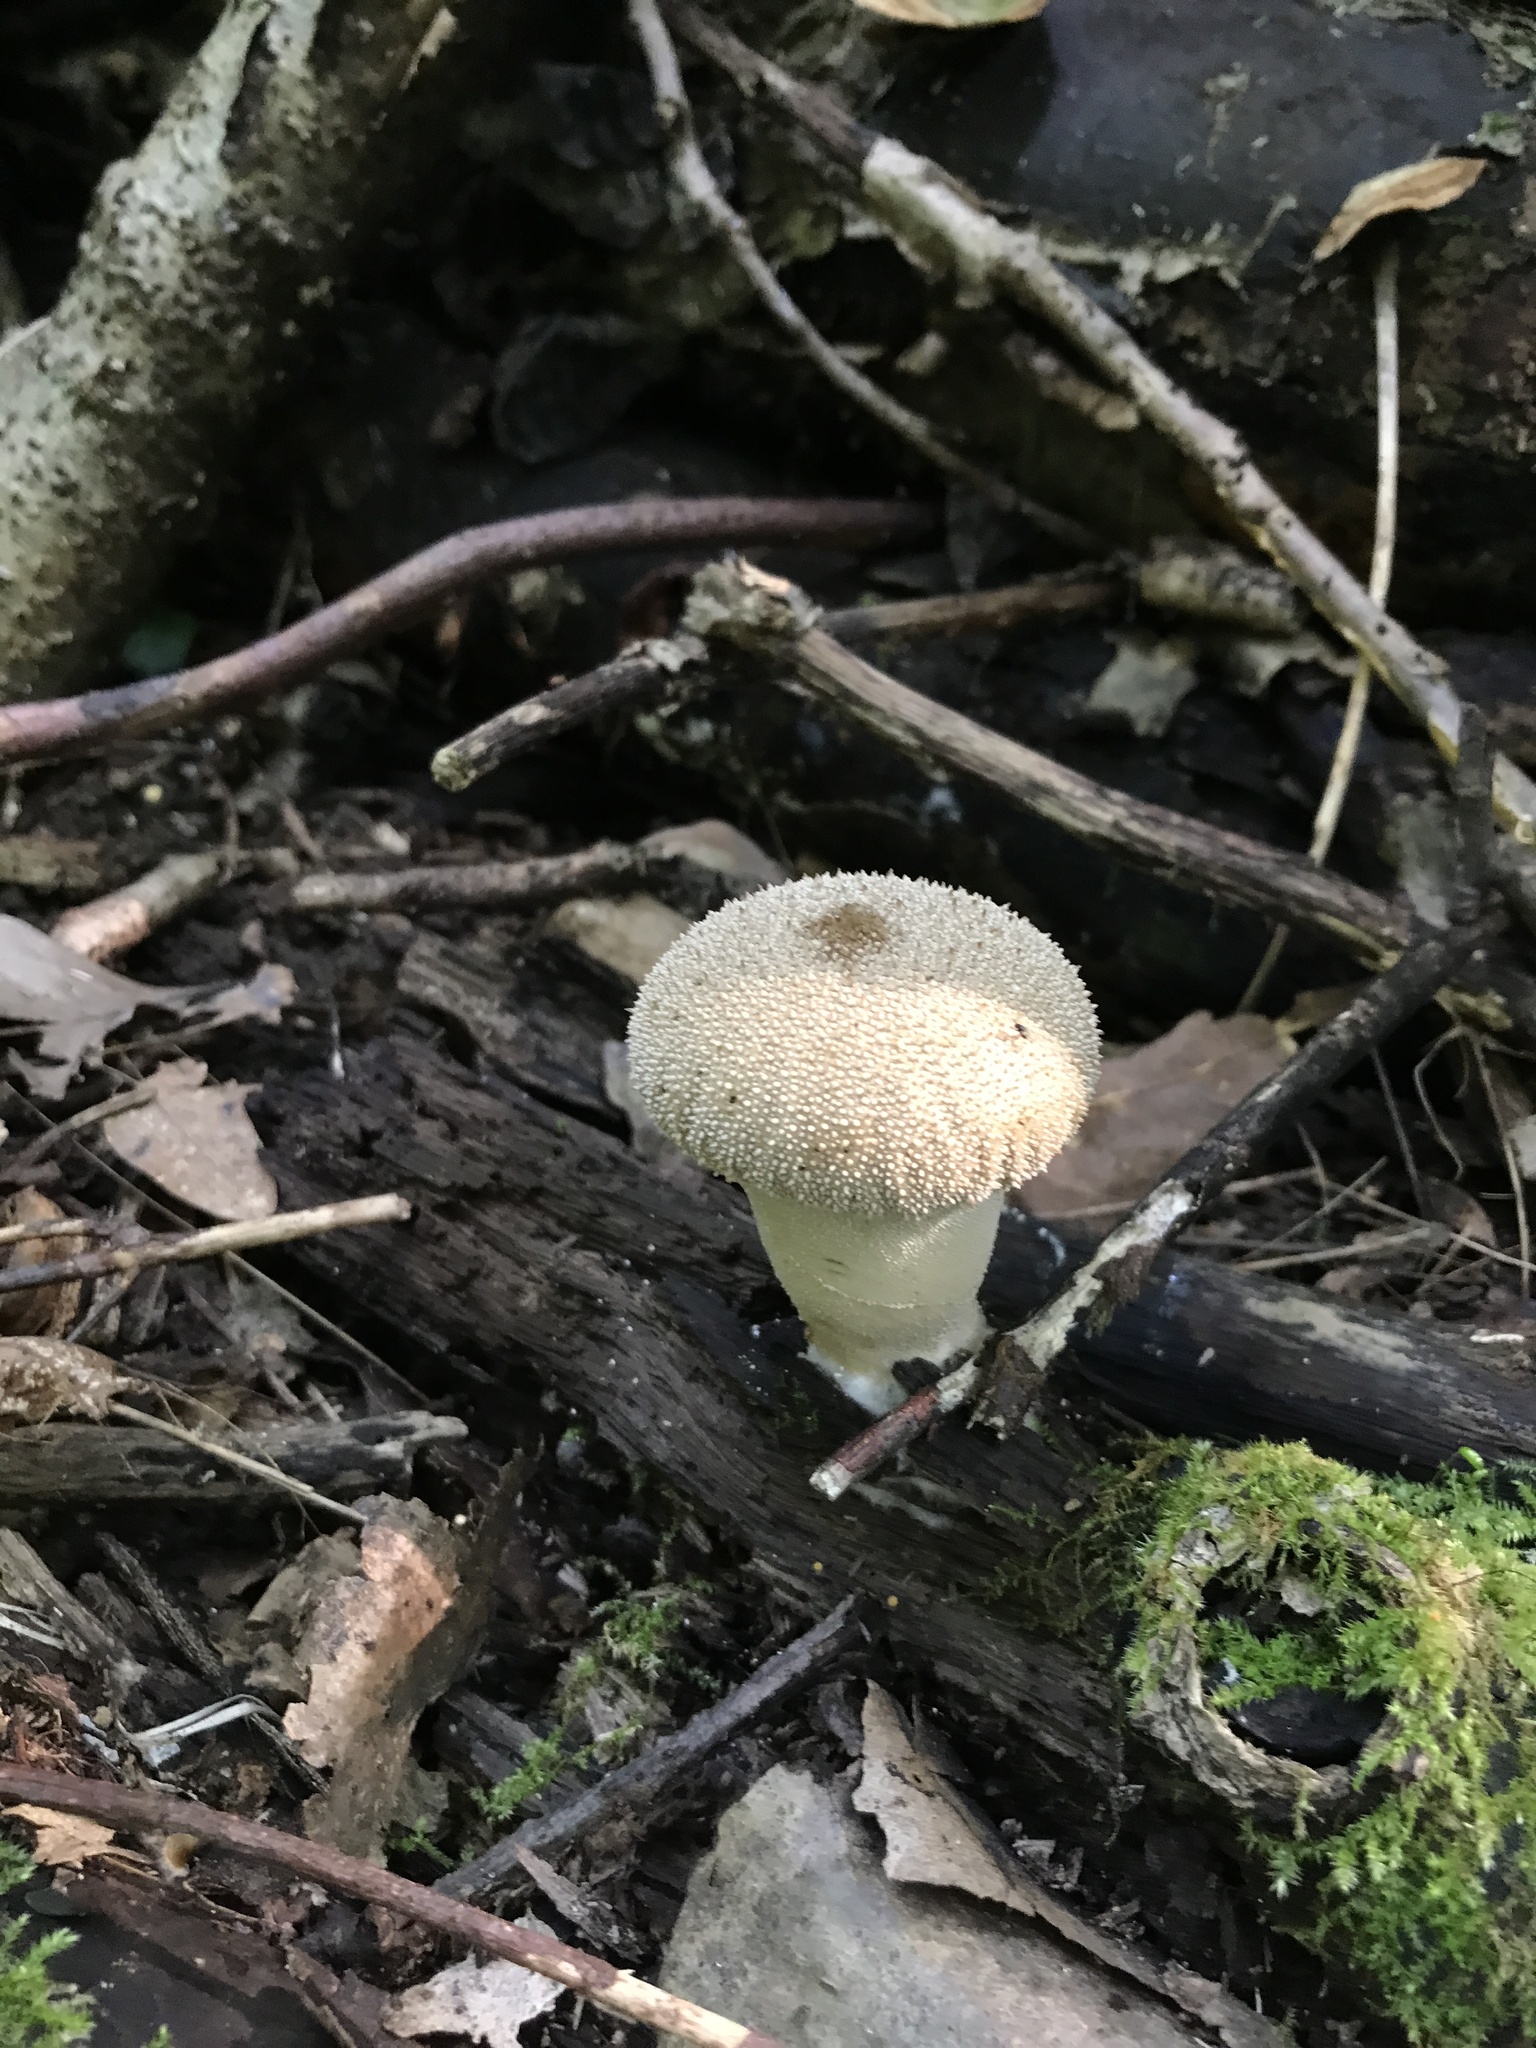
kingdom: Fungi
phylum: Basidiomycota
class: Agaricomycetes
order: Agaricales
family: Lycoperdaceae
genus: Lycoperdon
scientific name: Lycoperdon perlatum
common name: Common puffball
